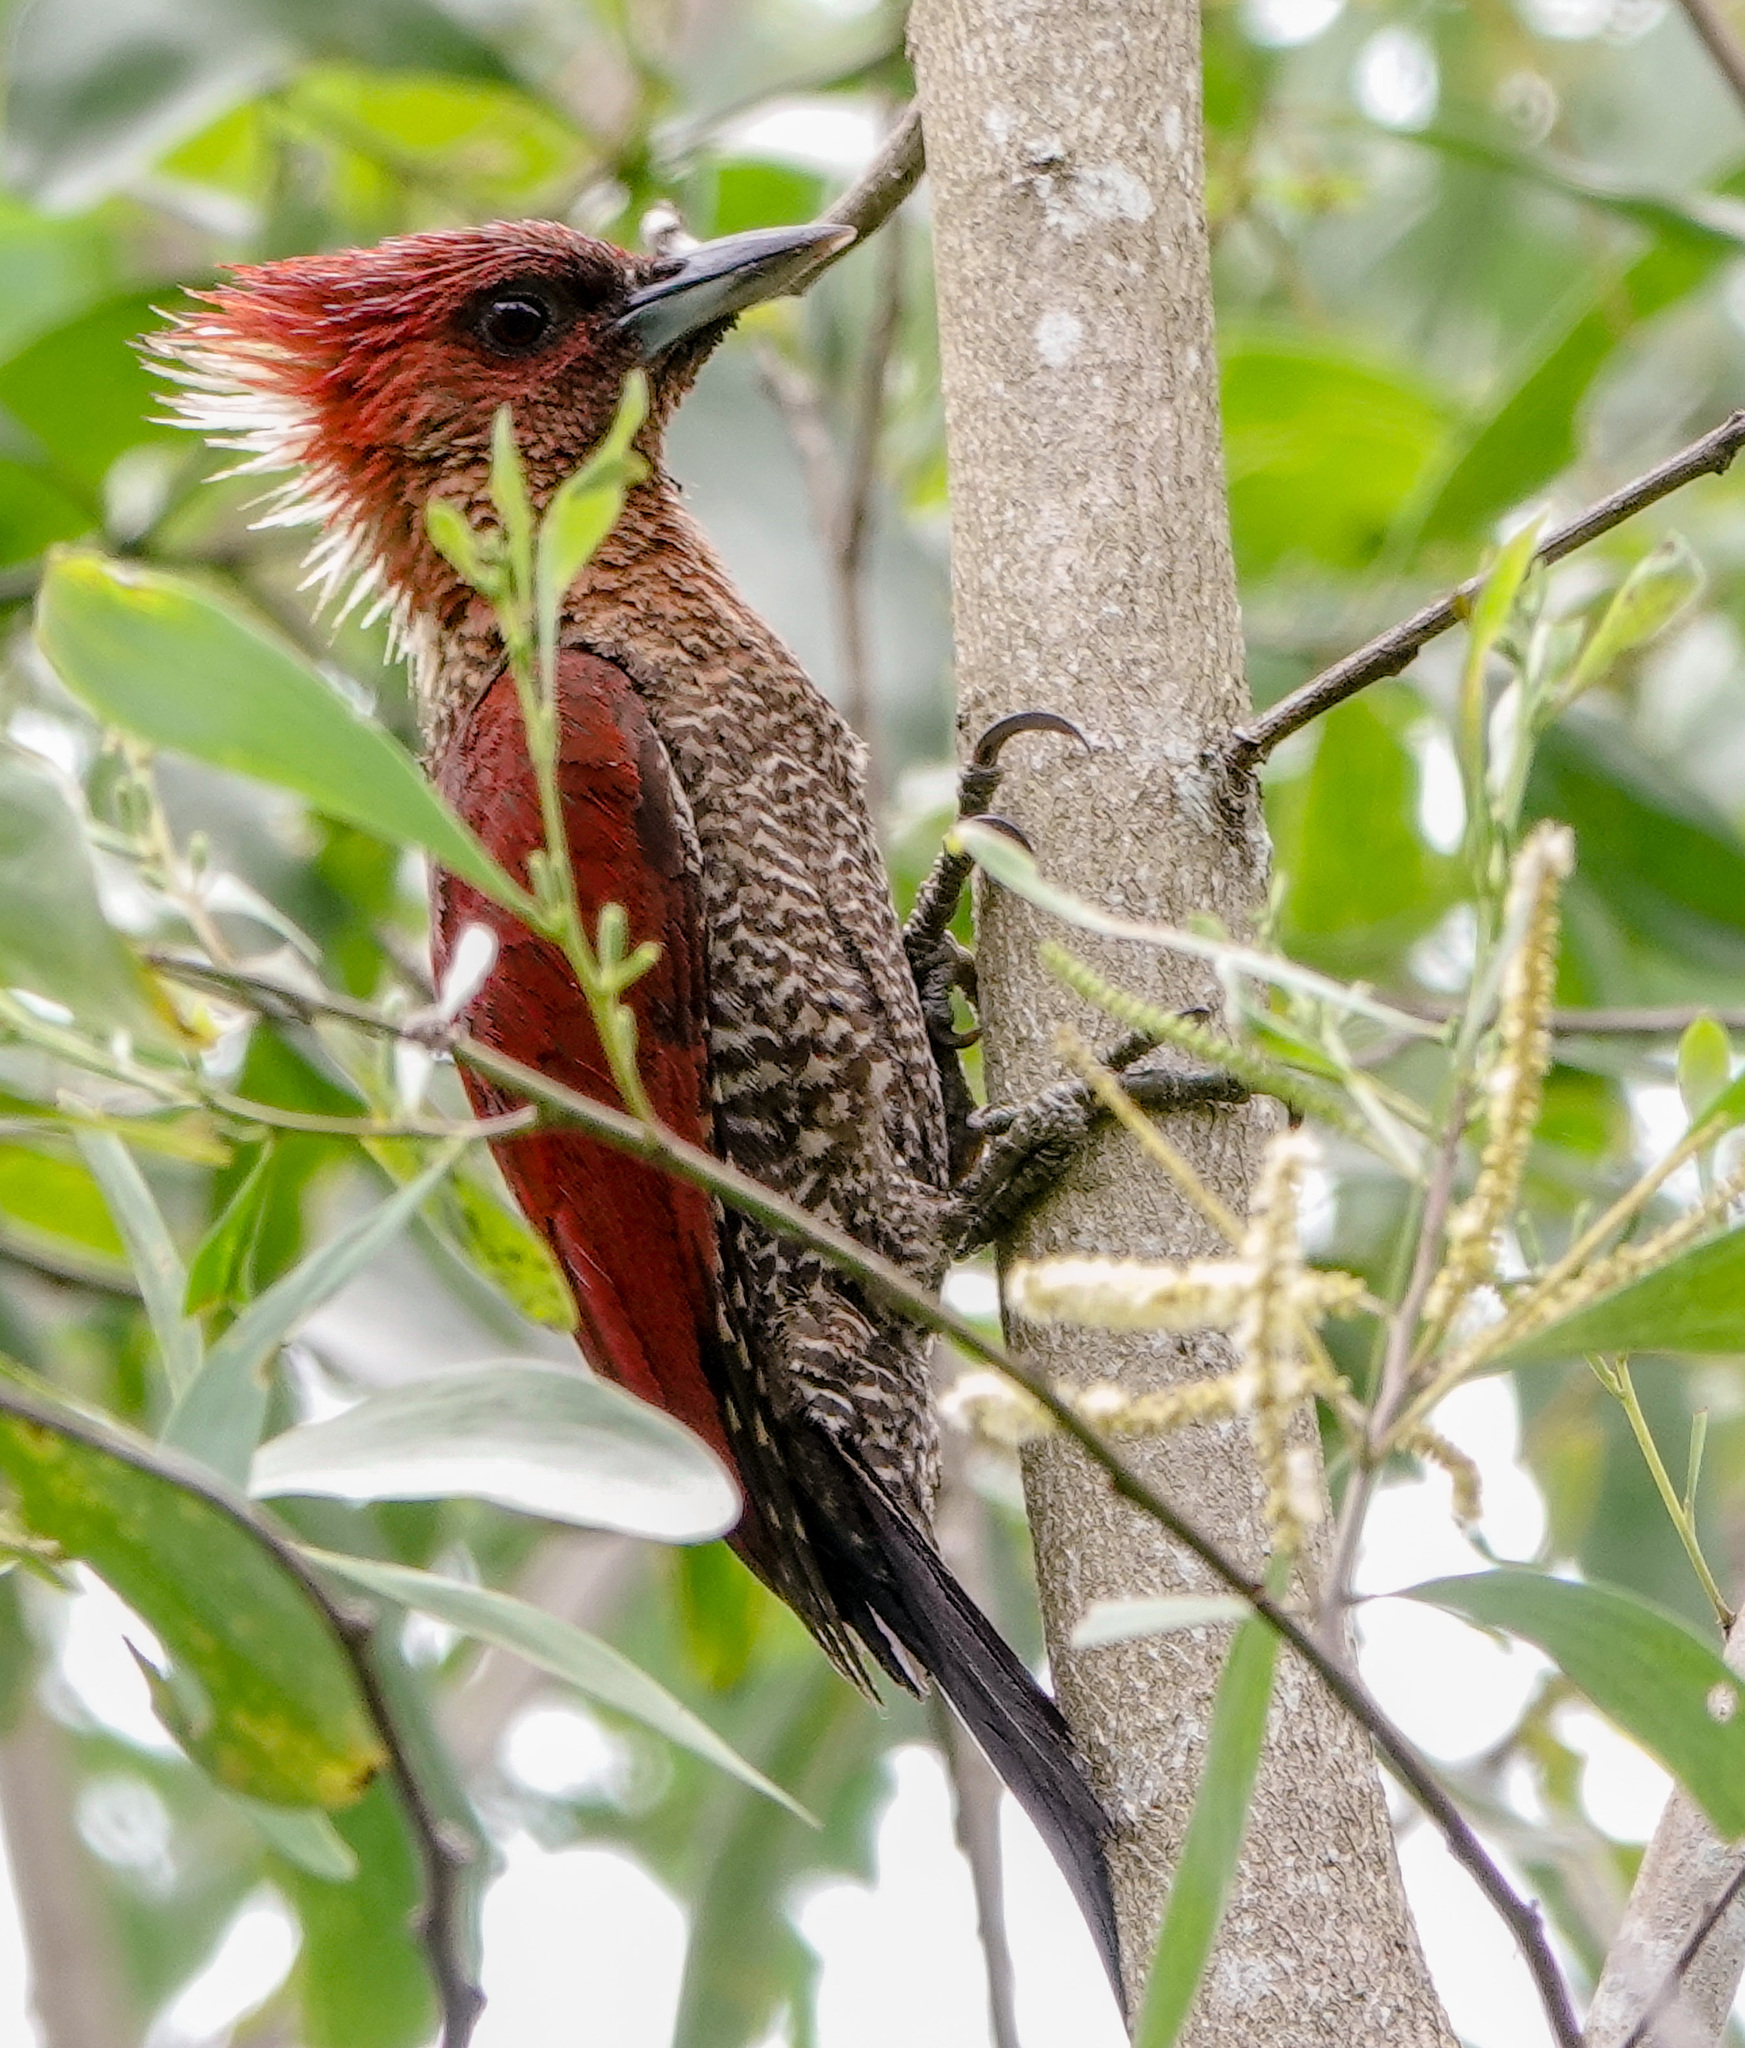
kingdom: Animalia
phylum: Chordata
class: Aves
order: Piciformes
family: Picidae
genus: Chrysophlegma
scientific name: Chrysophlegma miniaceum
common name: Banded woodpecker
